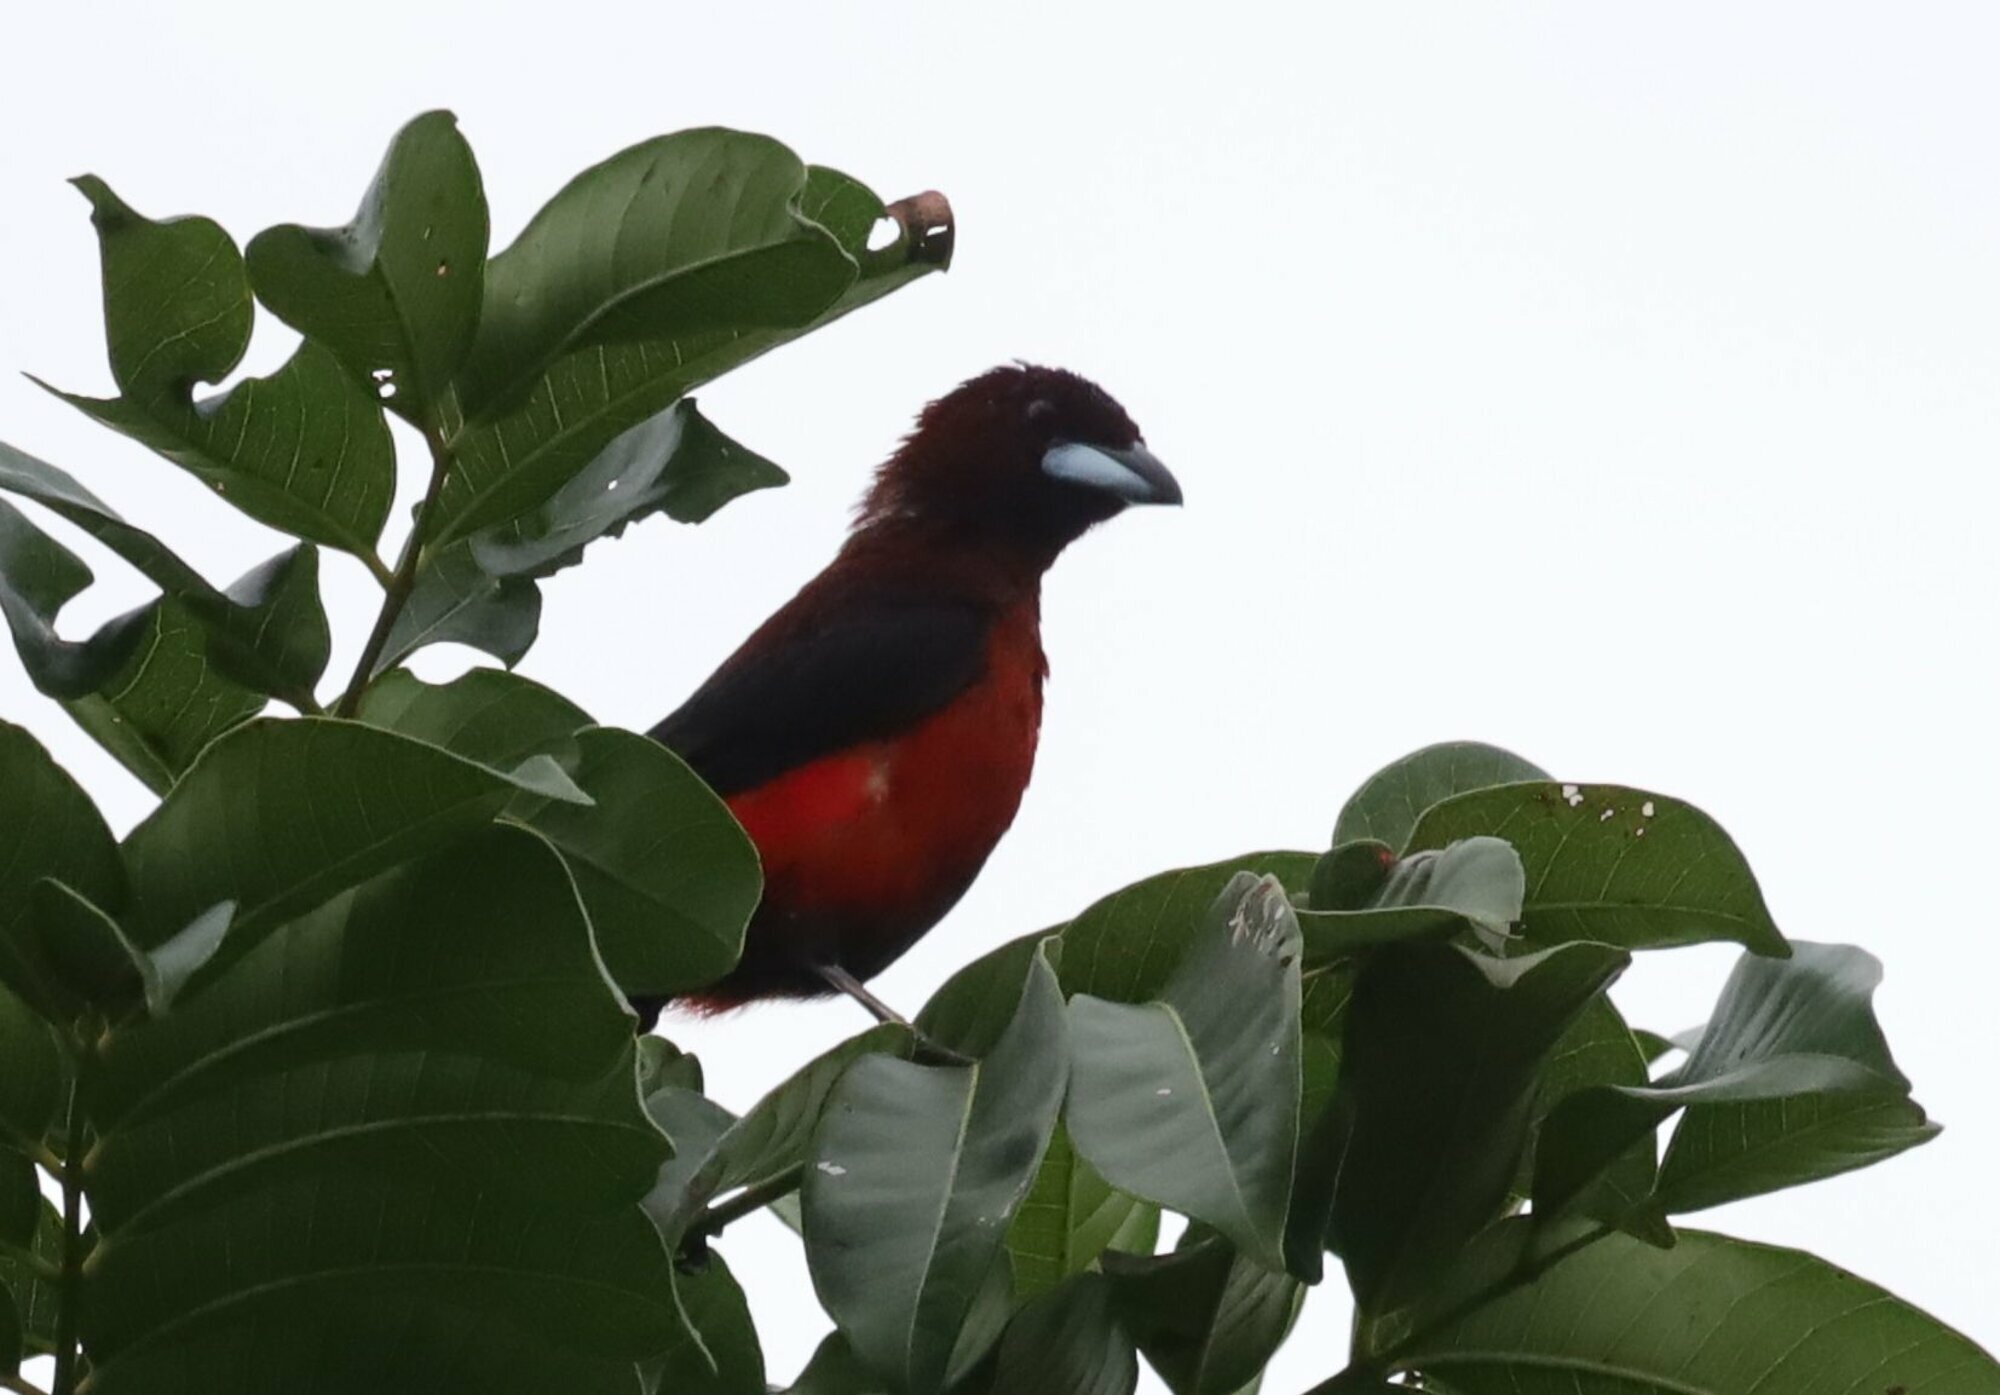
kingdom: Animalia
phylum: Chordata
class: Aves
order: Passeriformes
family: Thraupidae
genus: Ramphocelus
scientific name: Ramphocelus dimidiatus
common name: Crimson-backed tanager
